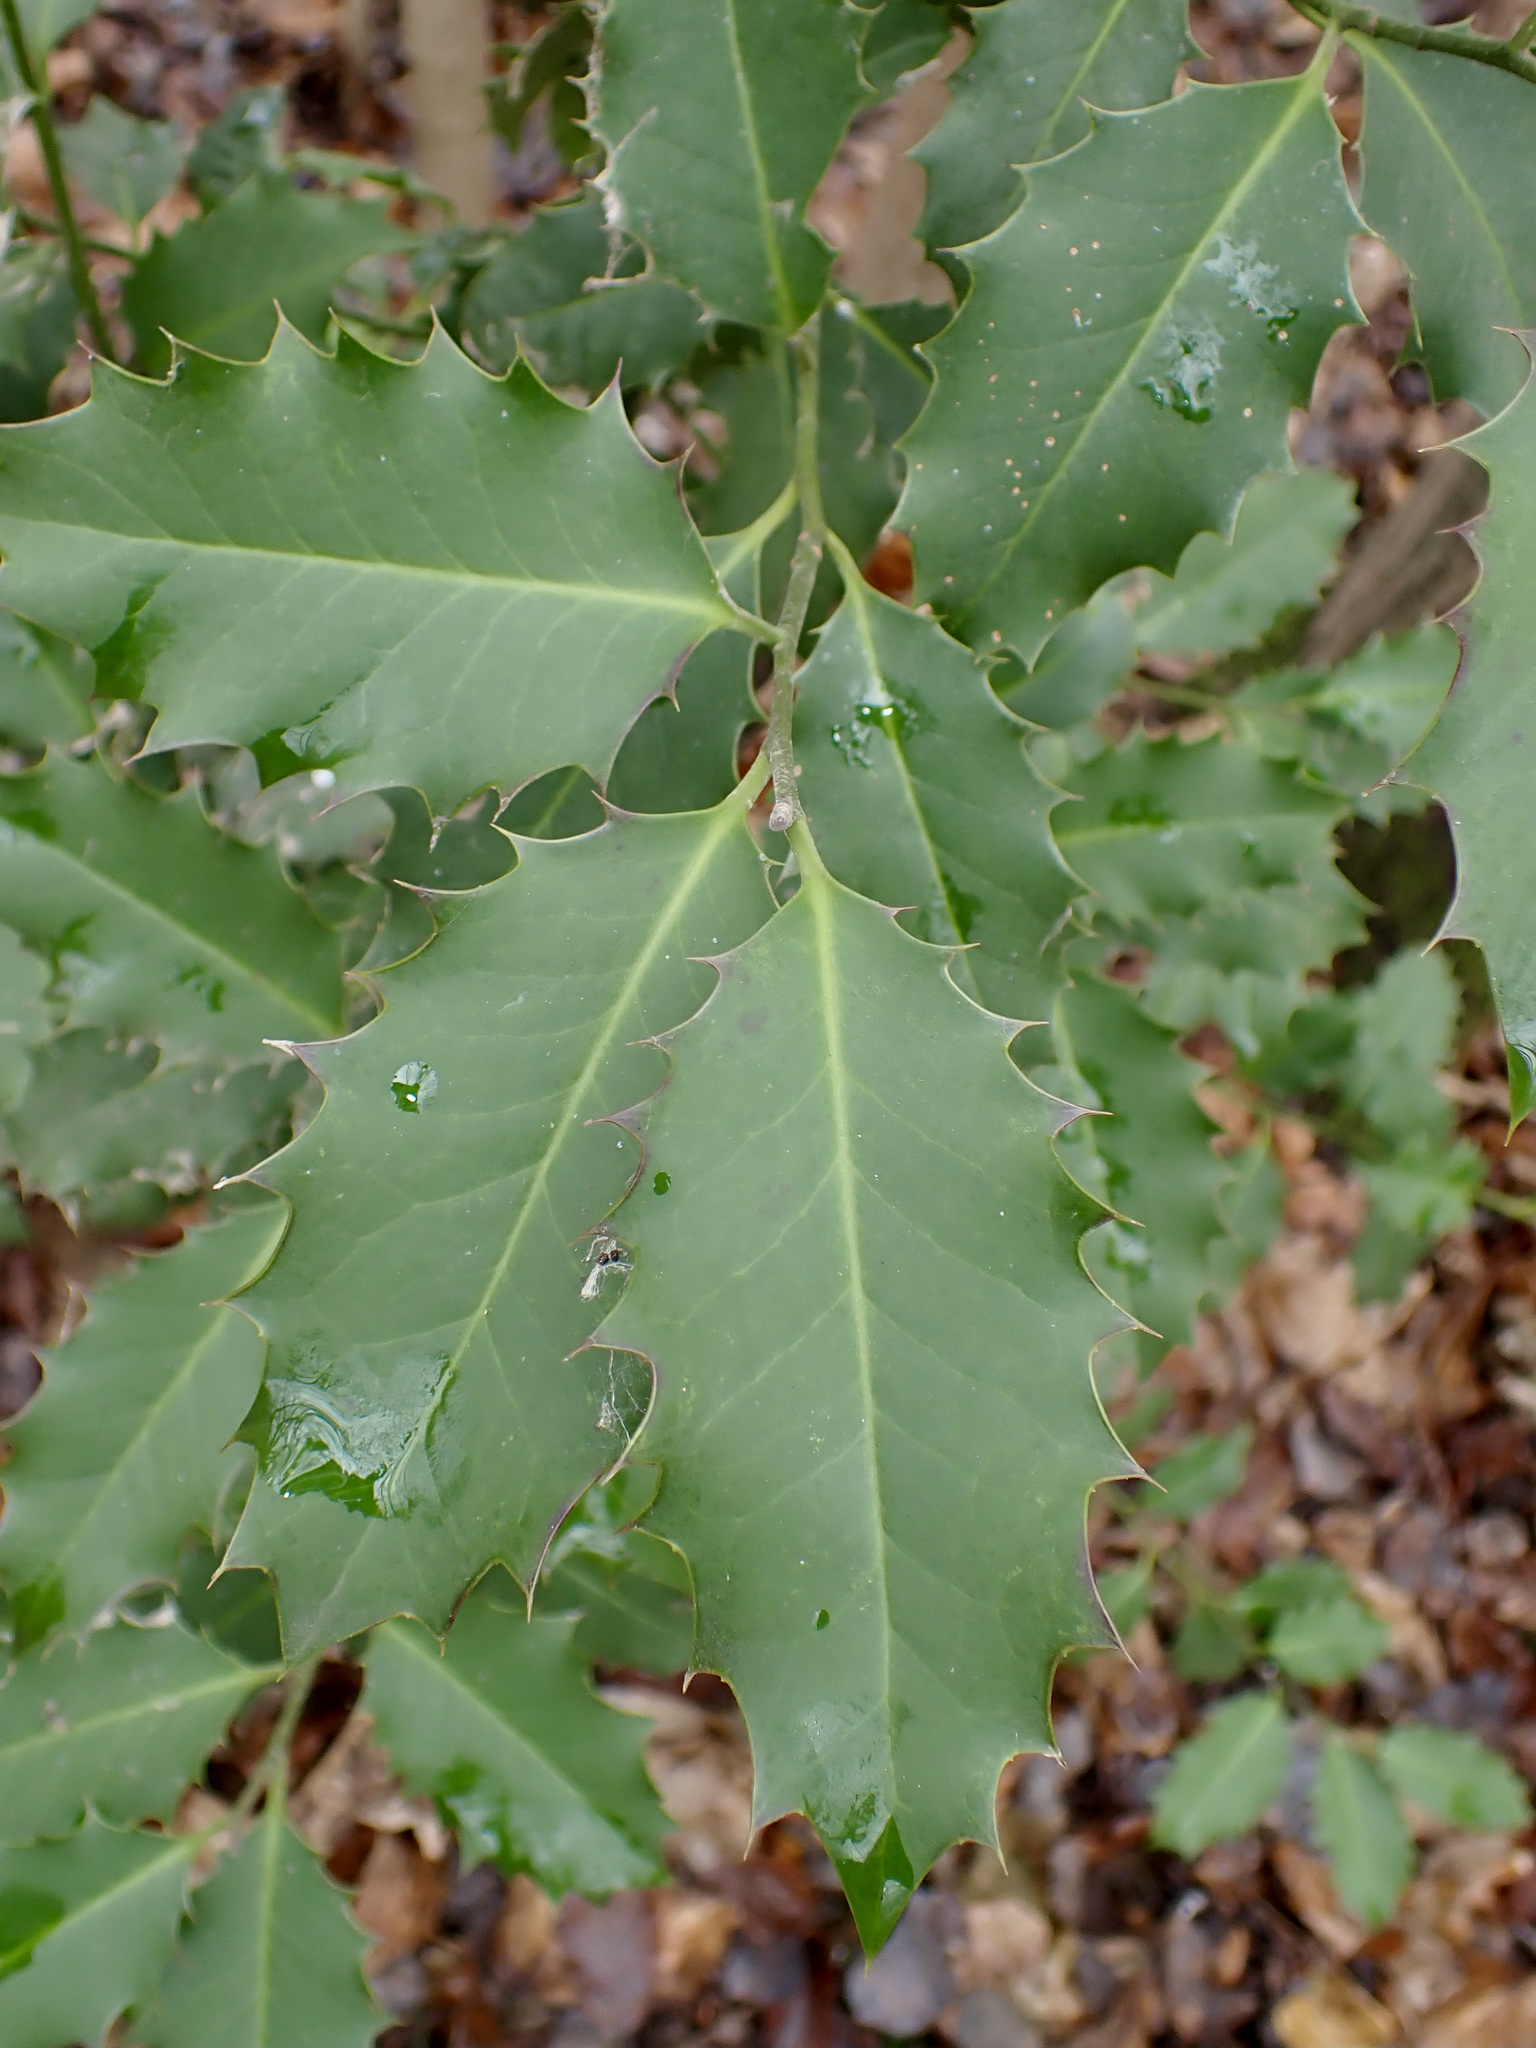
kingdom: Plantae
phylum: Tracheophyta
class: Magnoliopsida
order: Aquifoliales
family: Aquifoliaceae
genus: Ilex
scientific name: Ilex aquifolium
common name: English holly
